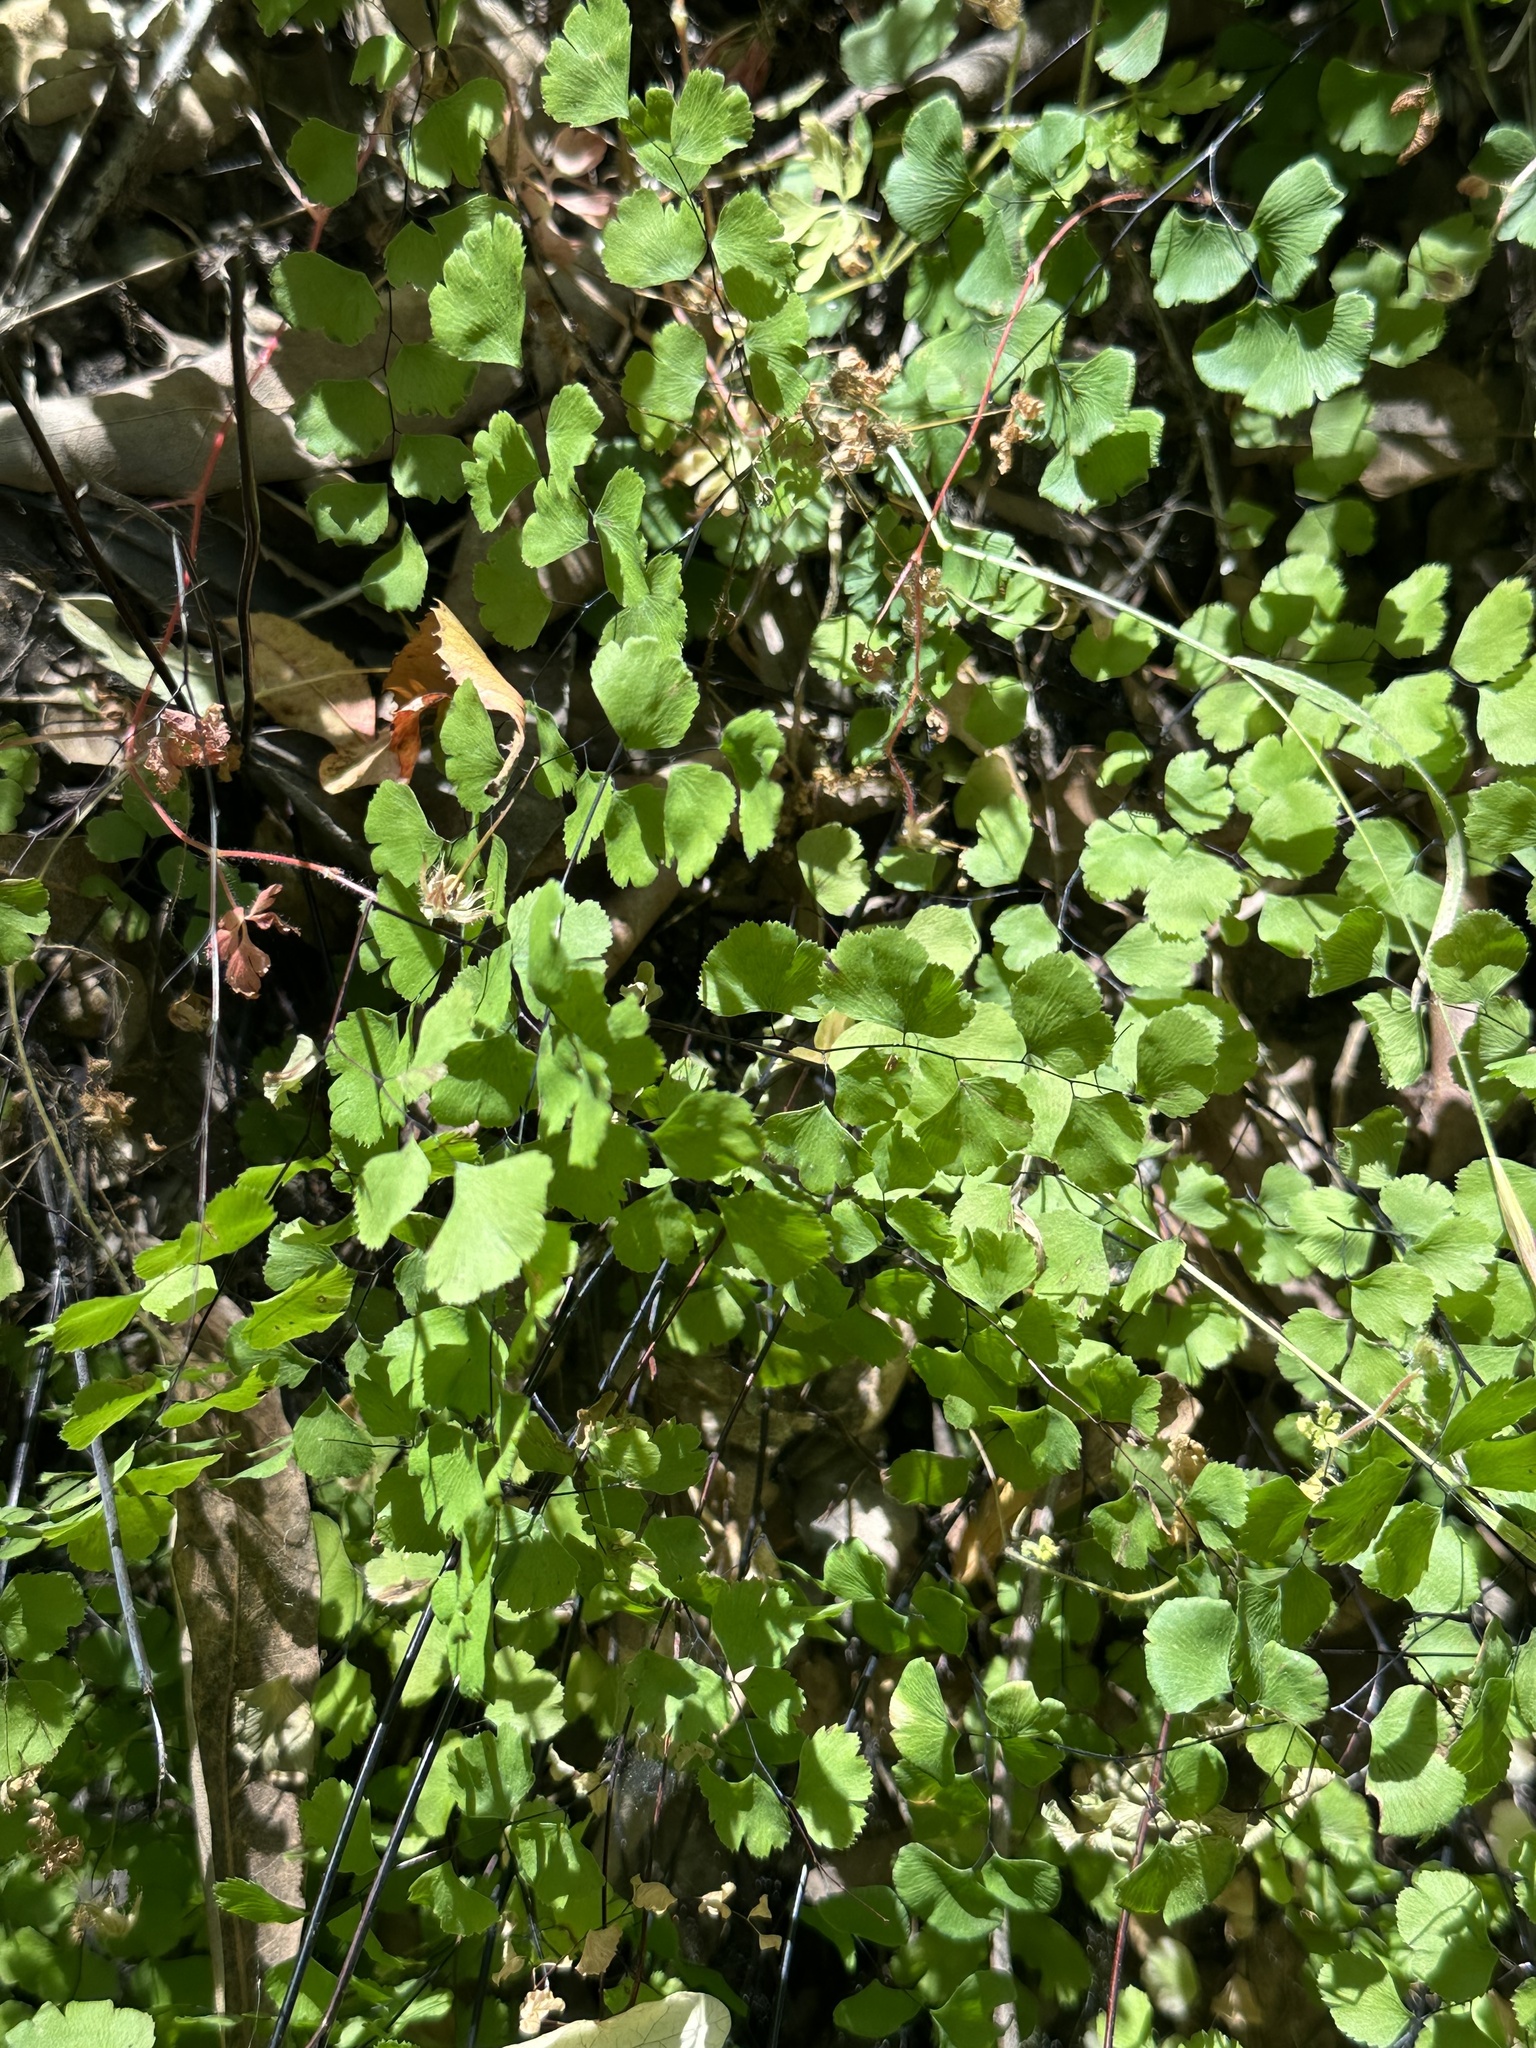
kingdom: Plantae
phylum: Tracheophyta
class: Polypodiopsida
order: Polypodiales
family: Pteridaceae
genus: Adiantum
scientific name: Adiantum jordanii
